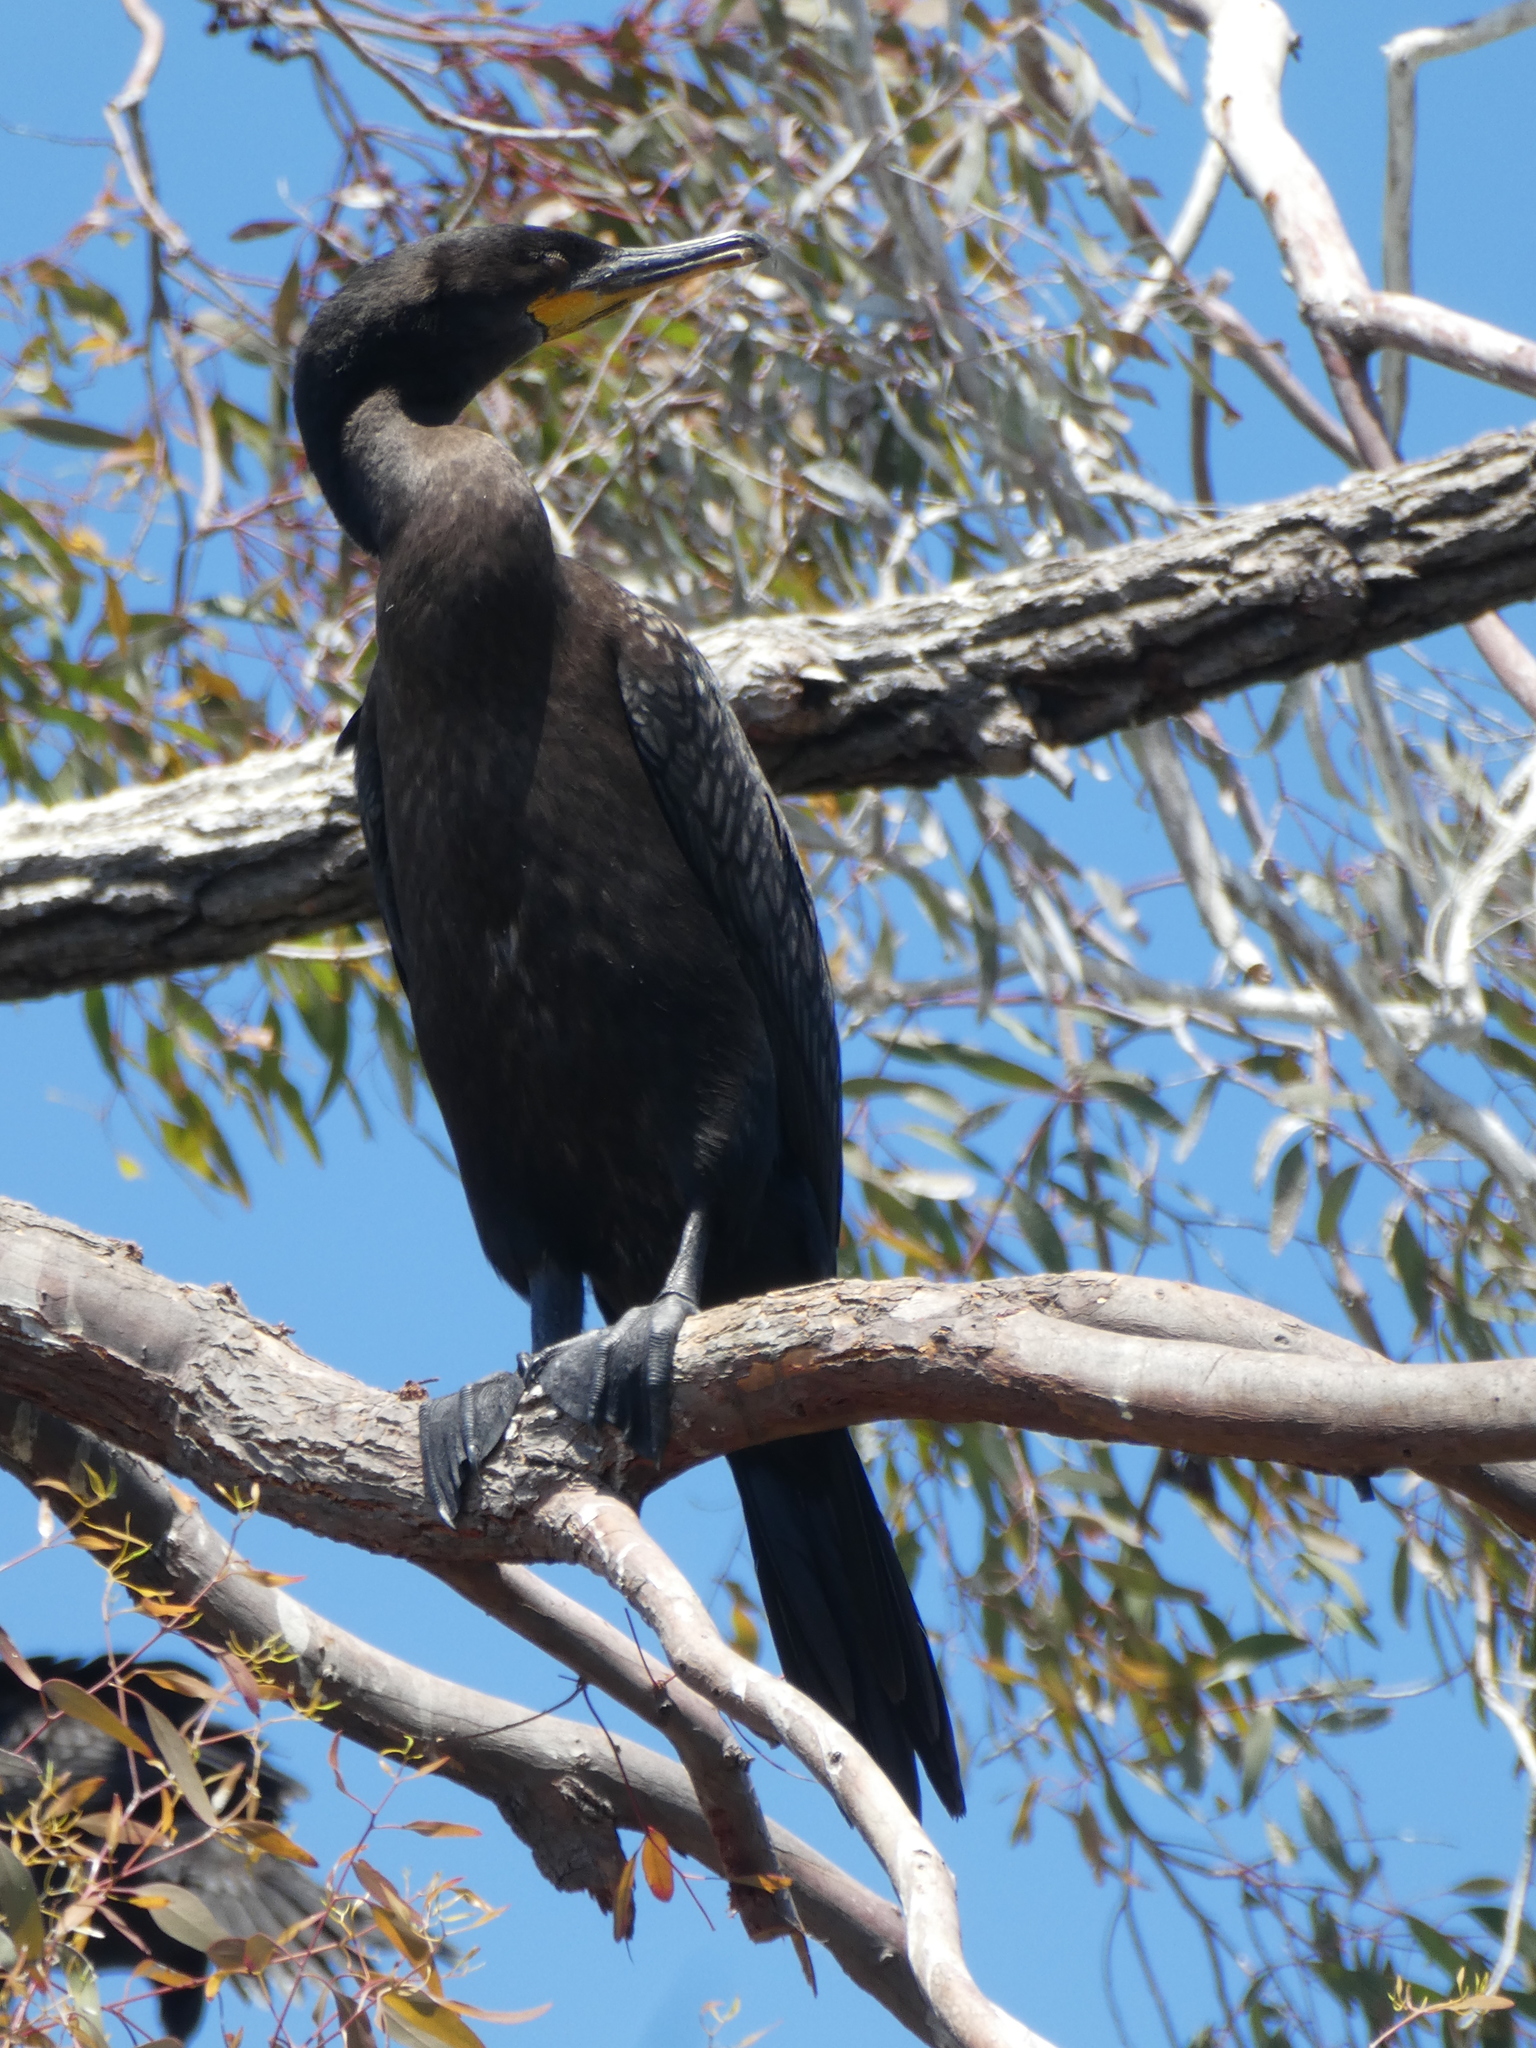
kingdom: Animalia
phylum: Chordata
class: Aves
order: Suliformes
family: Phalacrocoracidae
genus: Phalacrocorax
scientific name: Phalacrocorax auritus
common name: Double-crested cormorant
